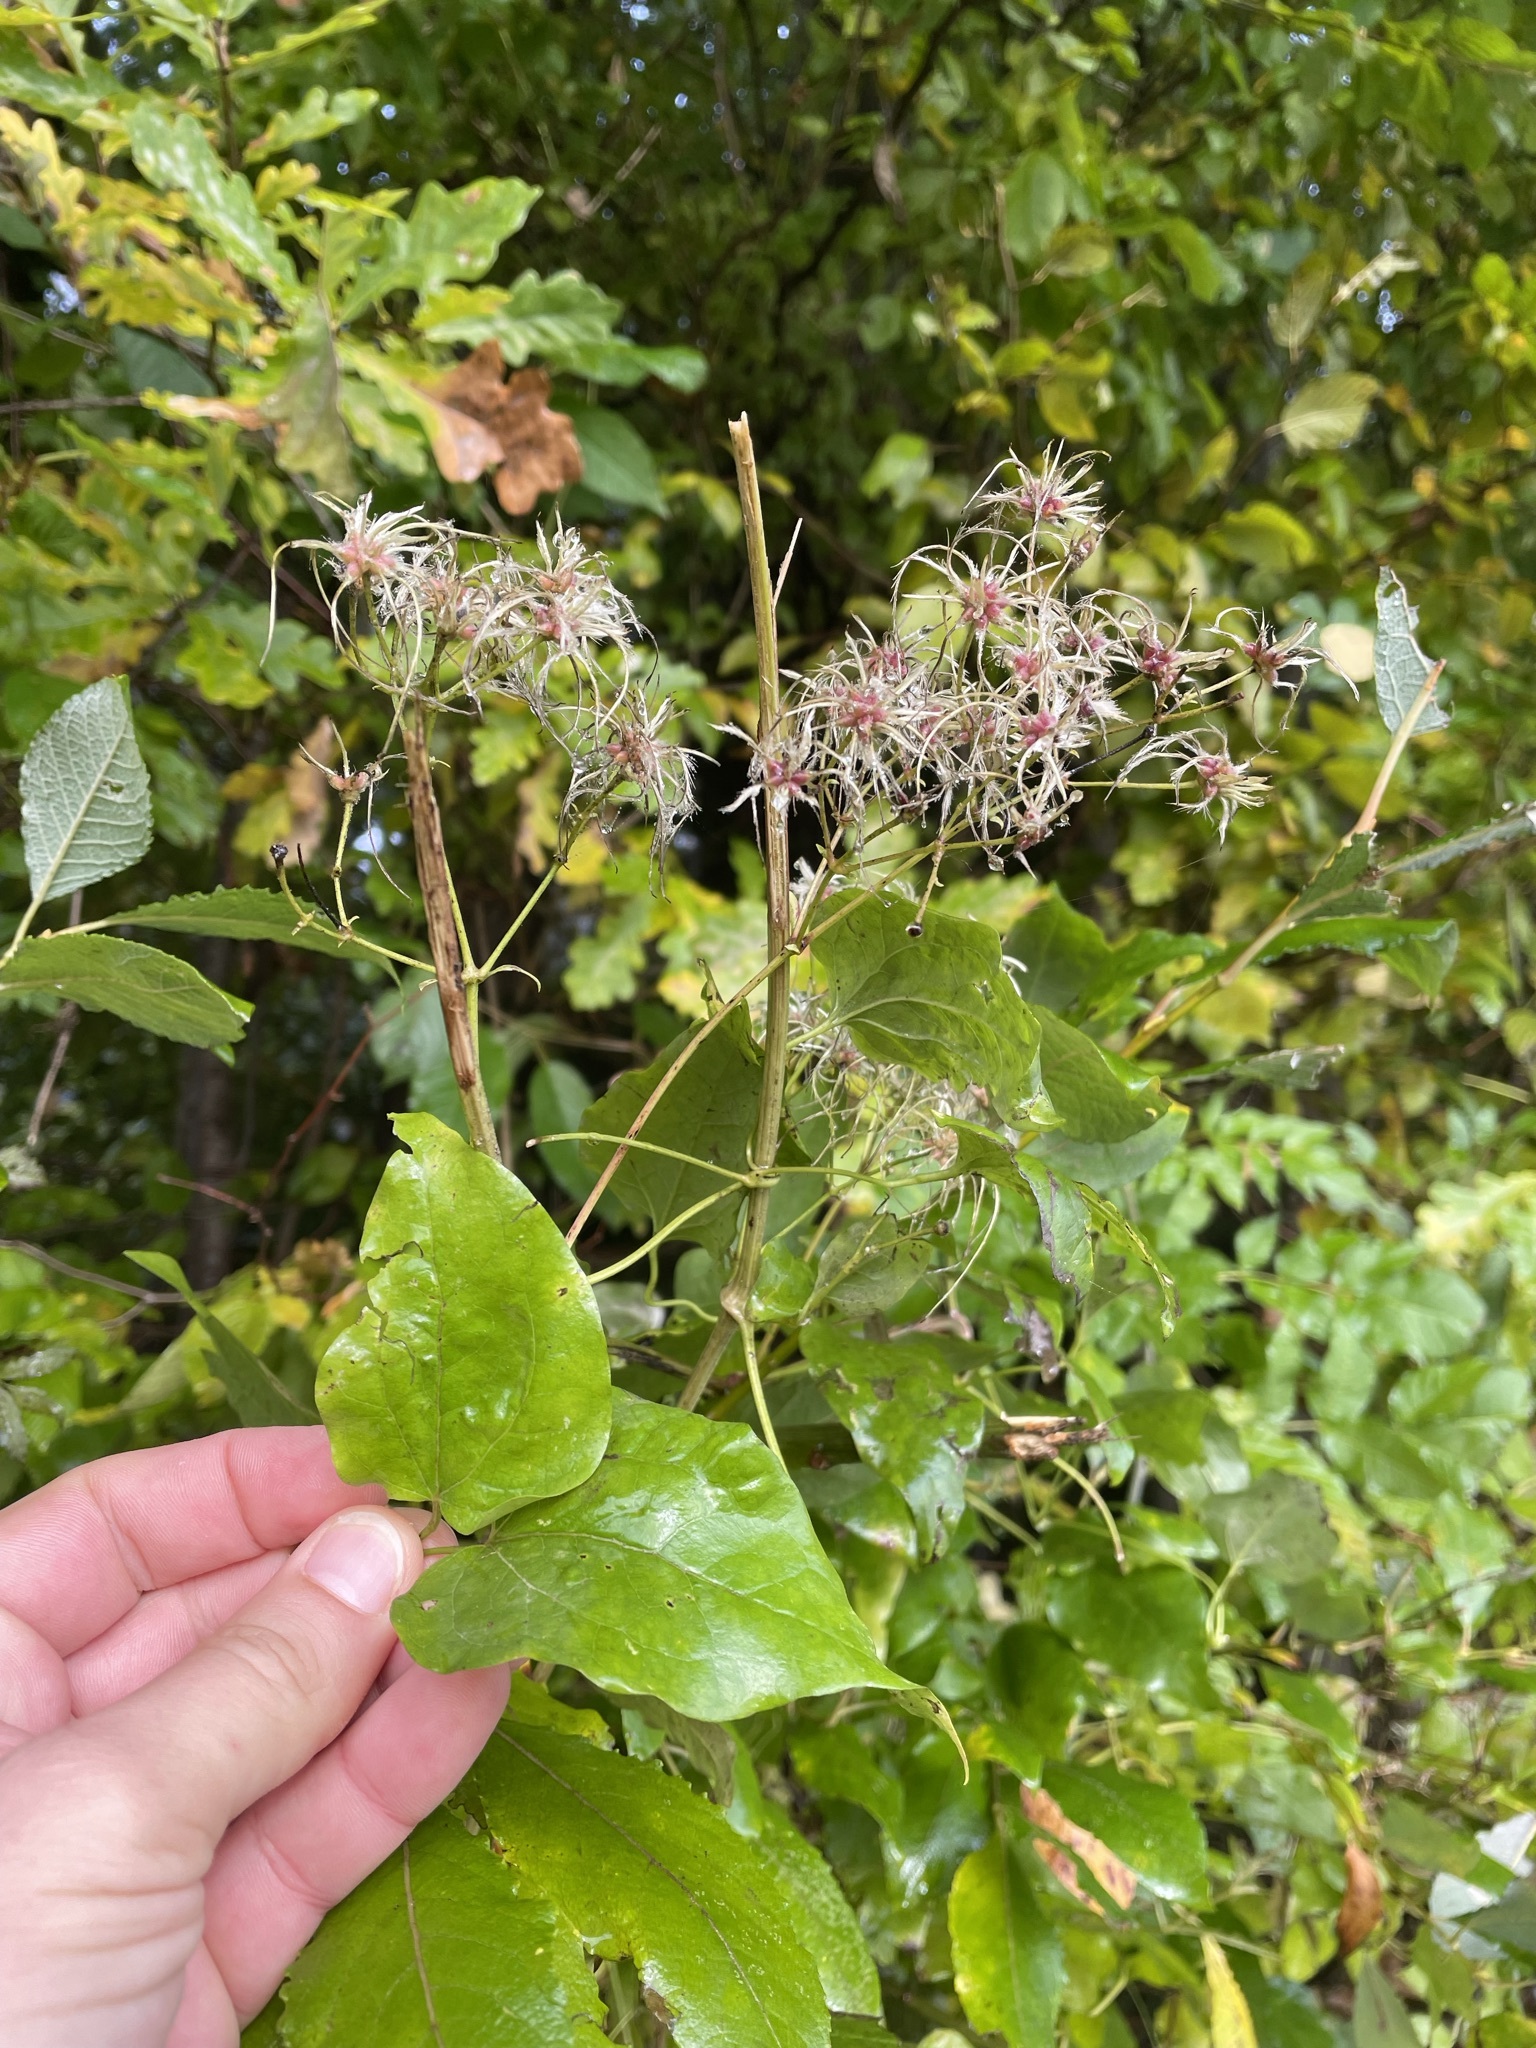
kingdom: Plantae
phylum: Tracheophyta
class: Magnoliopsida
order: Ranunculales
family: Ranunculaceae
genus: Clematis
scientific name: Clematis vitalba
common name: Evergreen clematis
